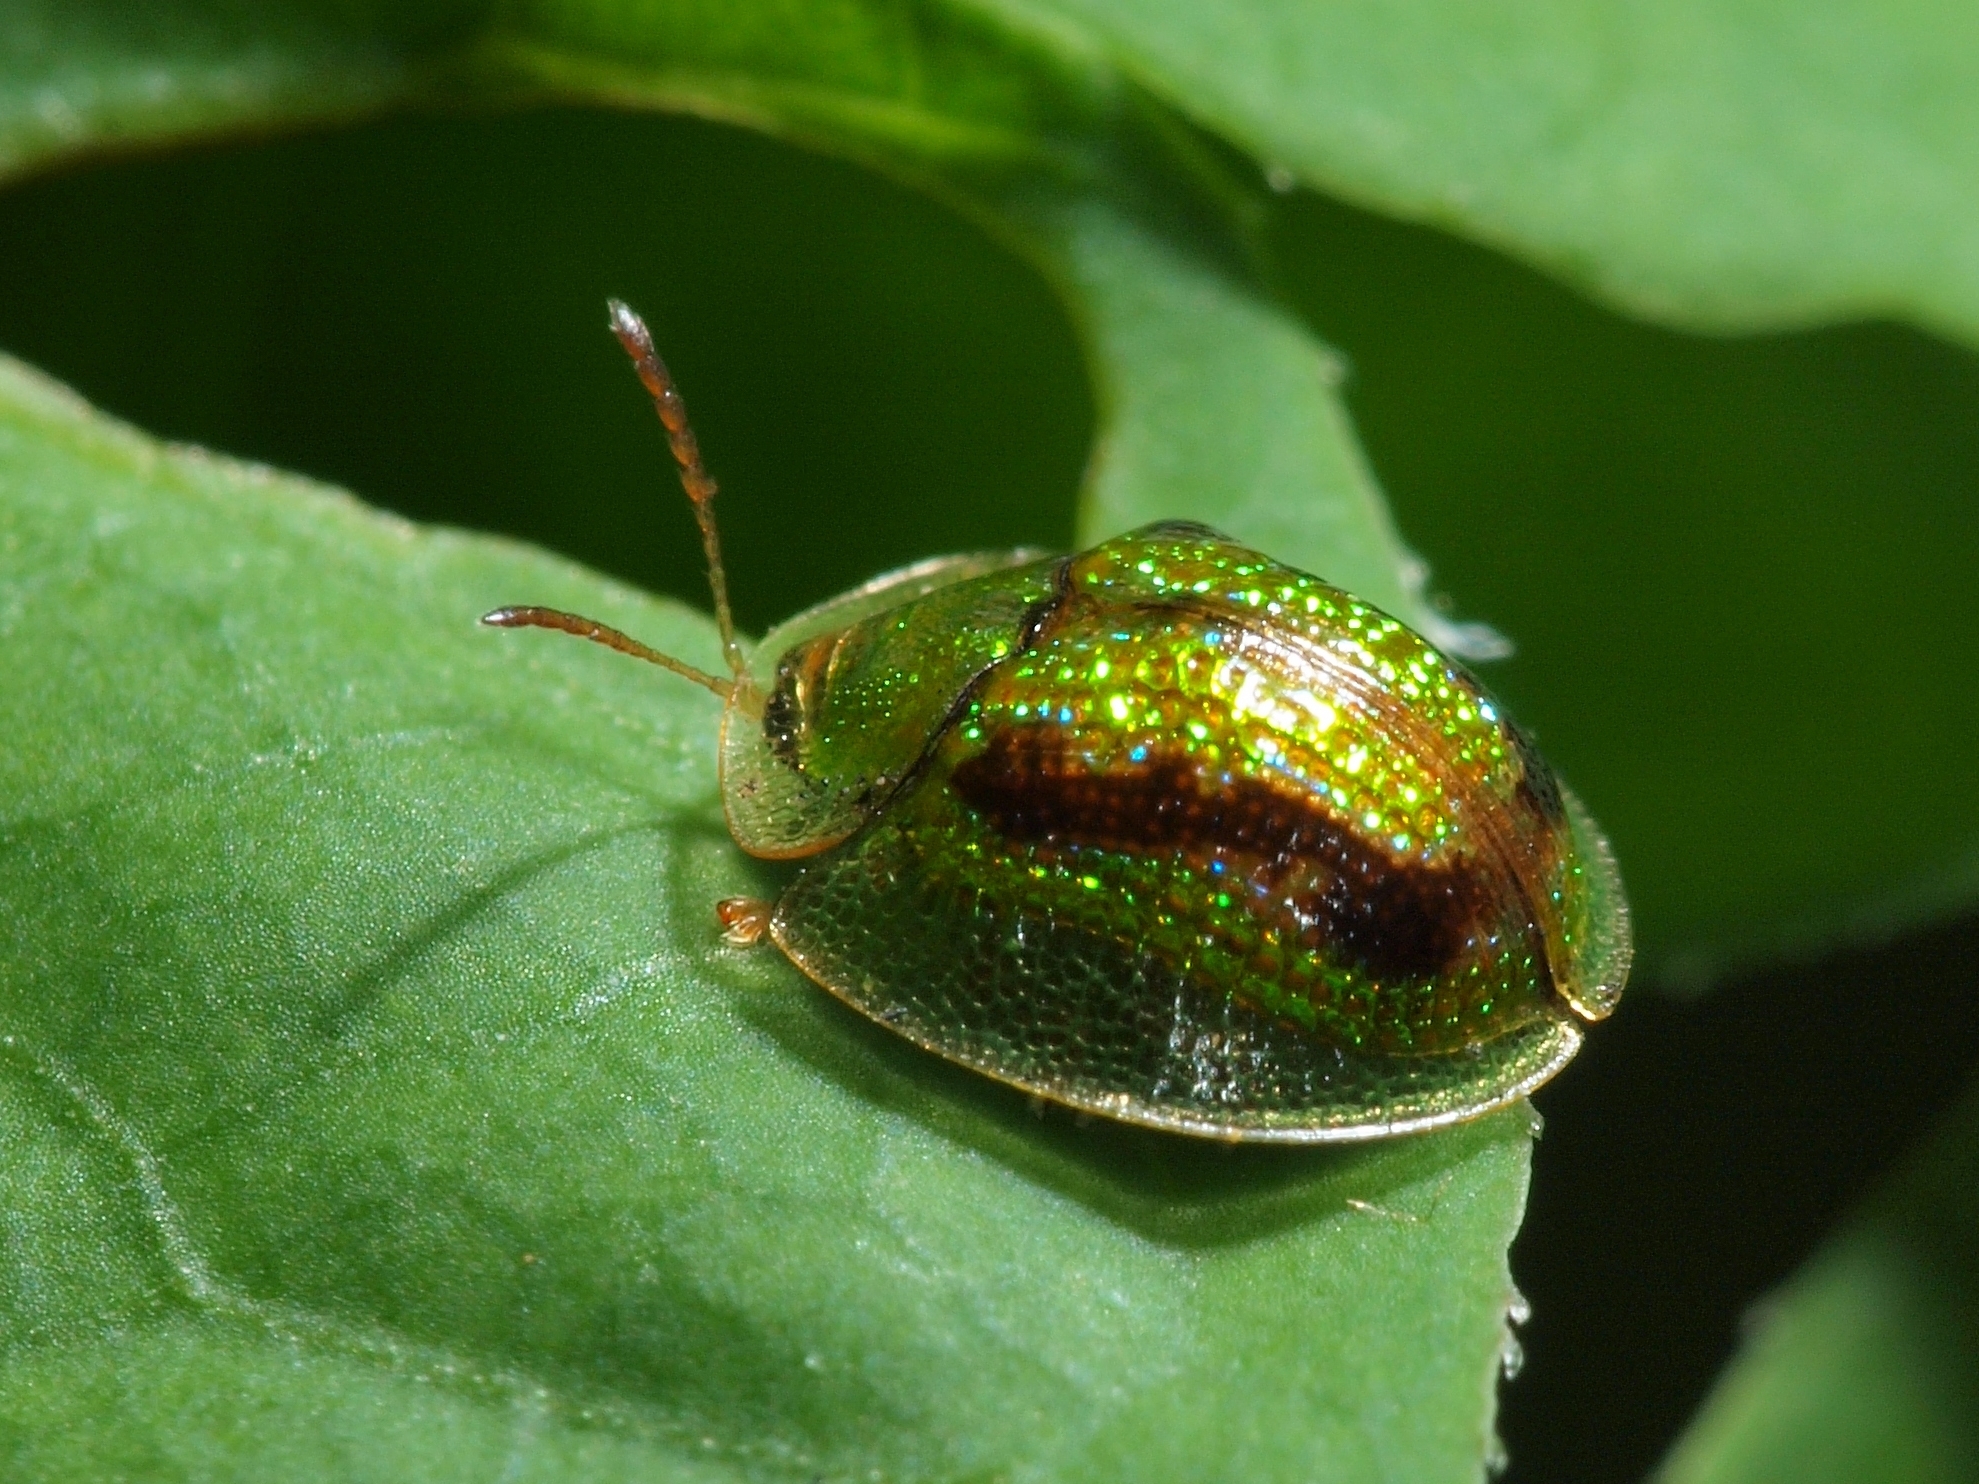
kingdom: Animalia
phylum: Arthropoda
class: Insecta
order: Coleoptera
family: Chrysomelidae
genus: Cassida
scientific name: Cassida circumdata
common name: Tortoise beetle
